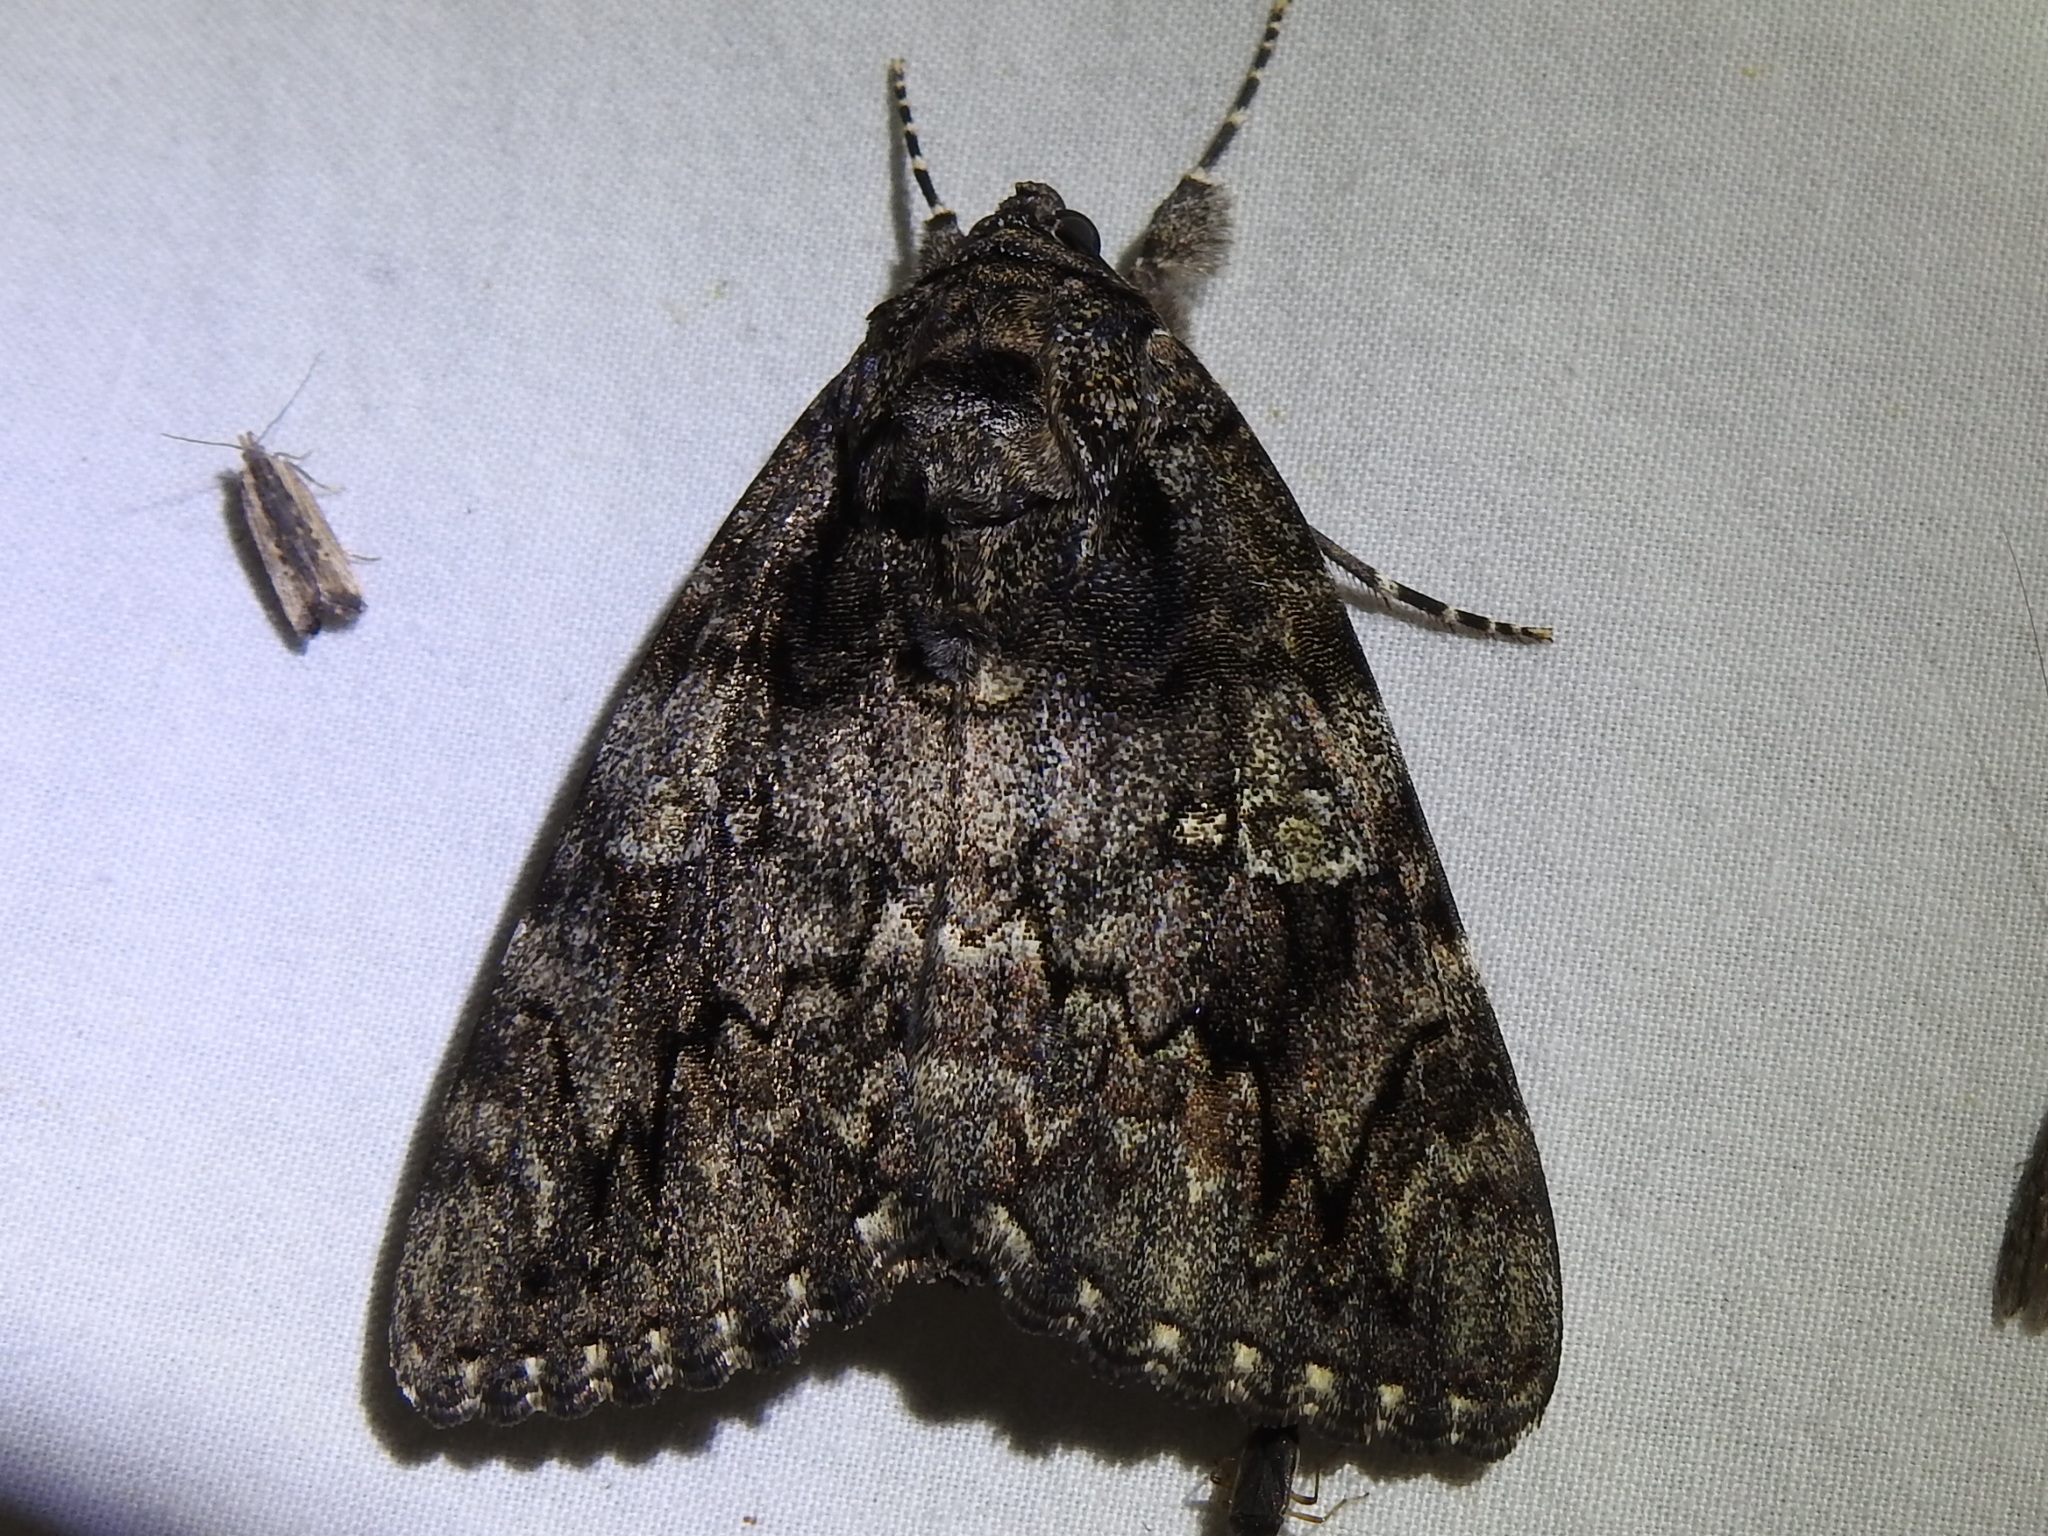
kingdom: Animalia
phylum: Arthropoda
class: Insecta
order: Lepidoptera
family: Erebidae
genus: Catocala
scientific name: Catocala ilia
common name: Ilia underwing
